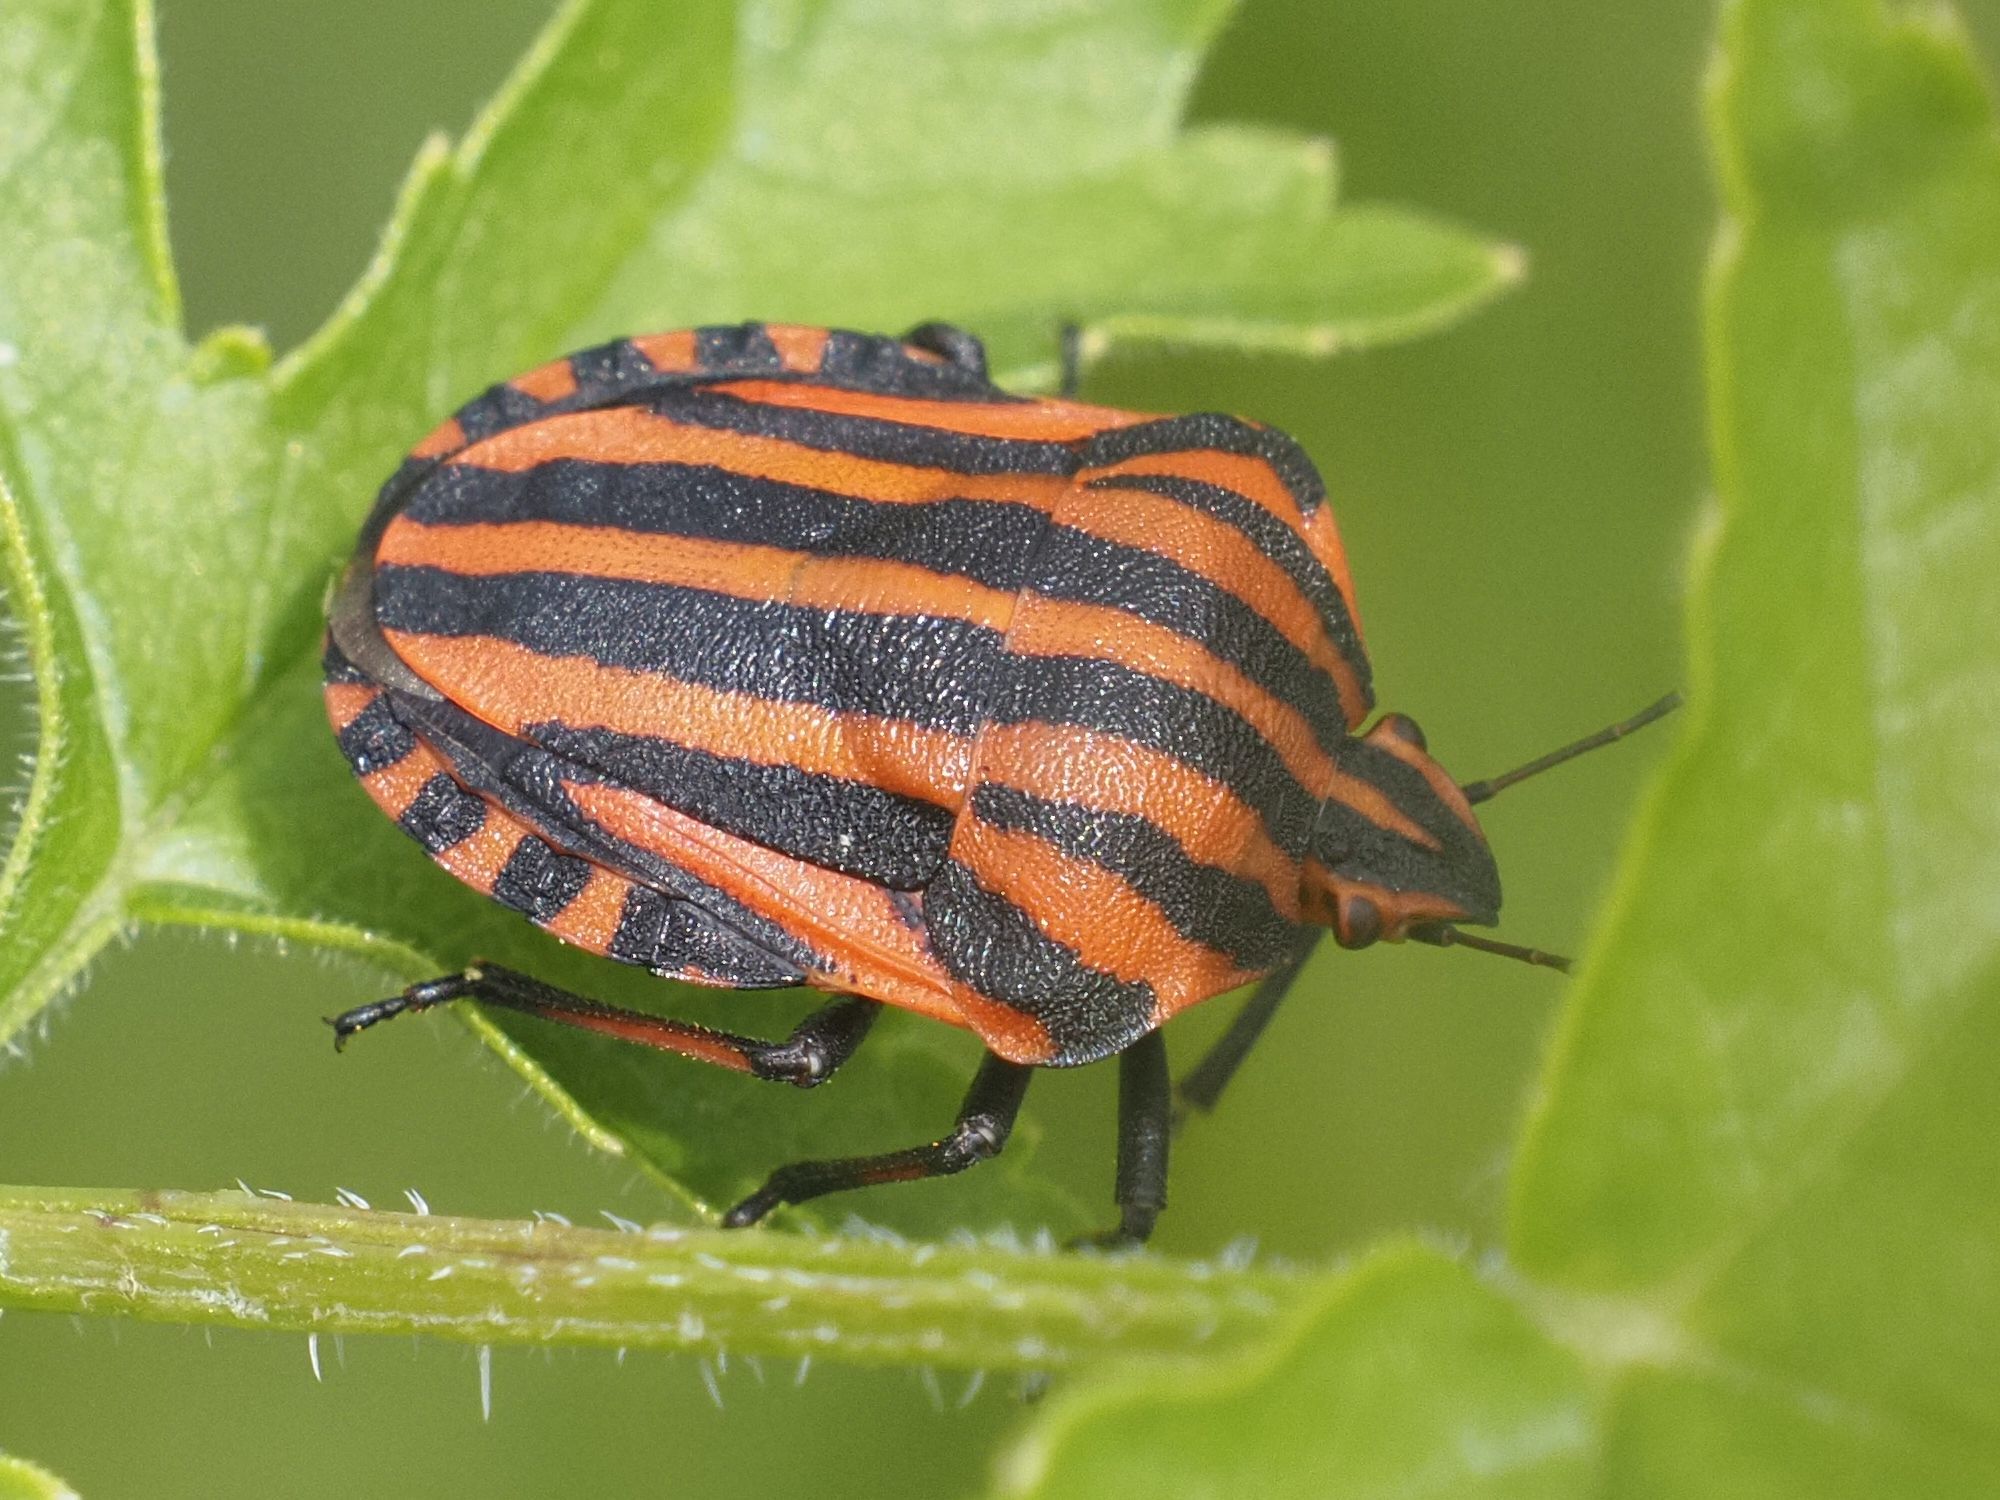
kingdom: Animalia
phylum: Arthropoda
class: Insecta
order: Hemiptera
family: Pentatomidae
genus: Graphosoma
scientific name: Graphosoma italicum
